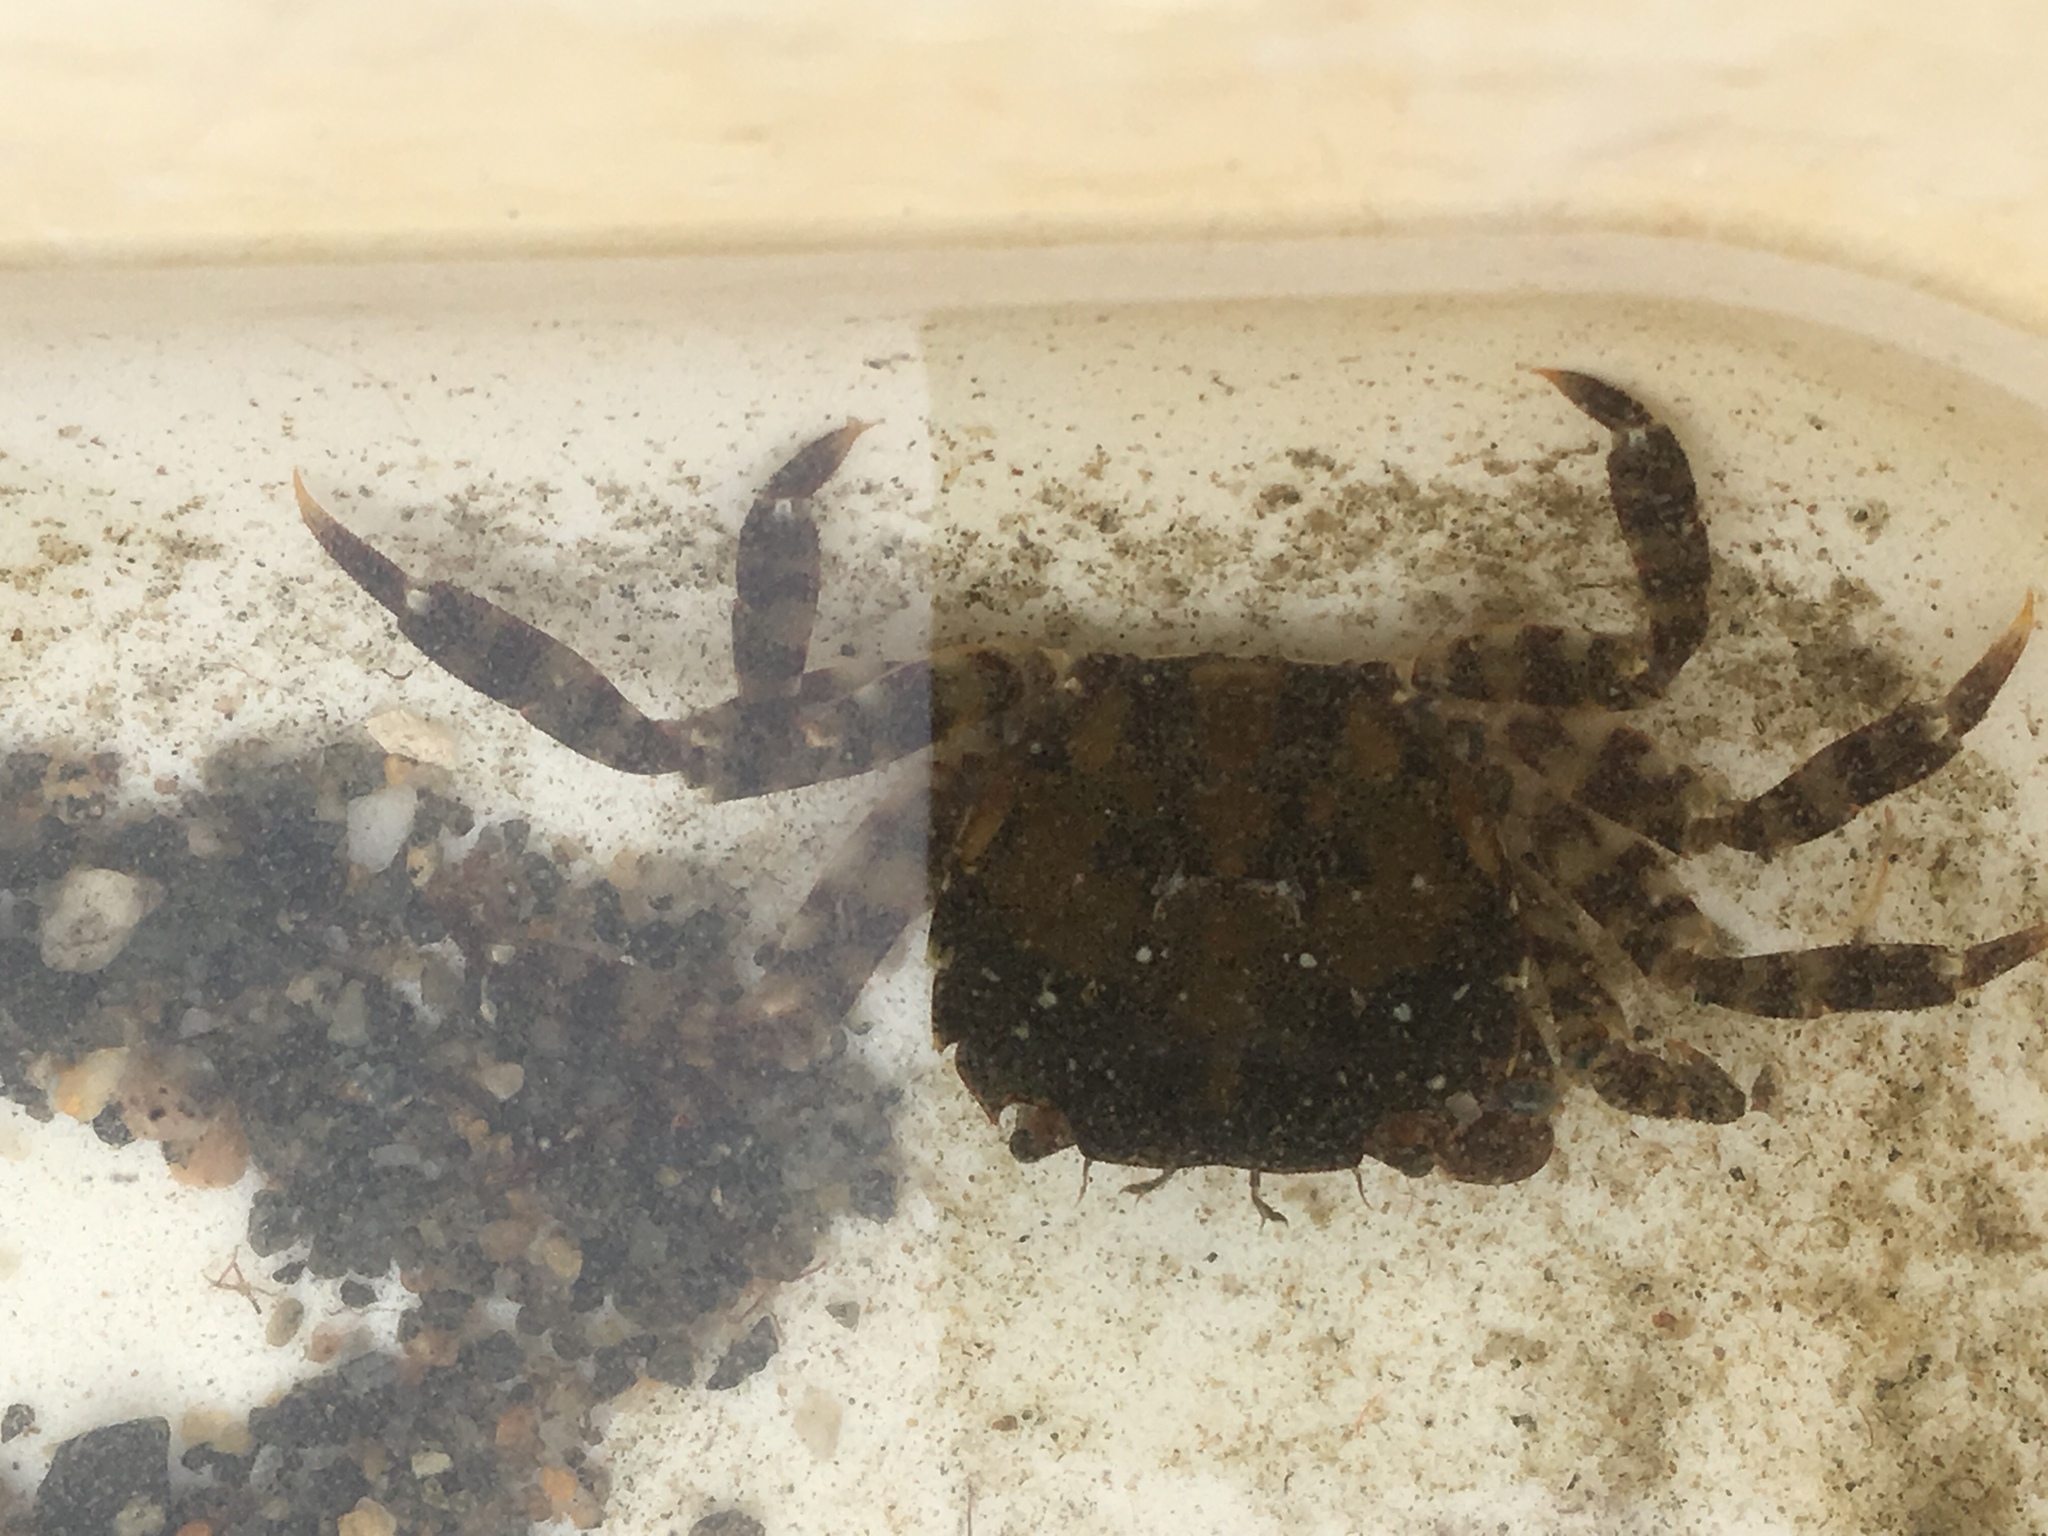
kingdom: Animalia
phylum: Arthropoda
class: Malacostraca
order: Decapoda
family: Varunidae
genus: Hemigrapsus
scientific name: Hemigrapsus sanguineus
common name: Asian shore crab
